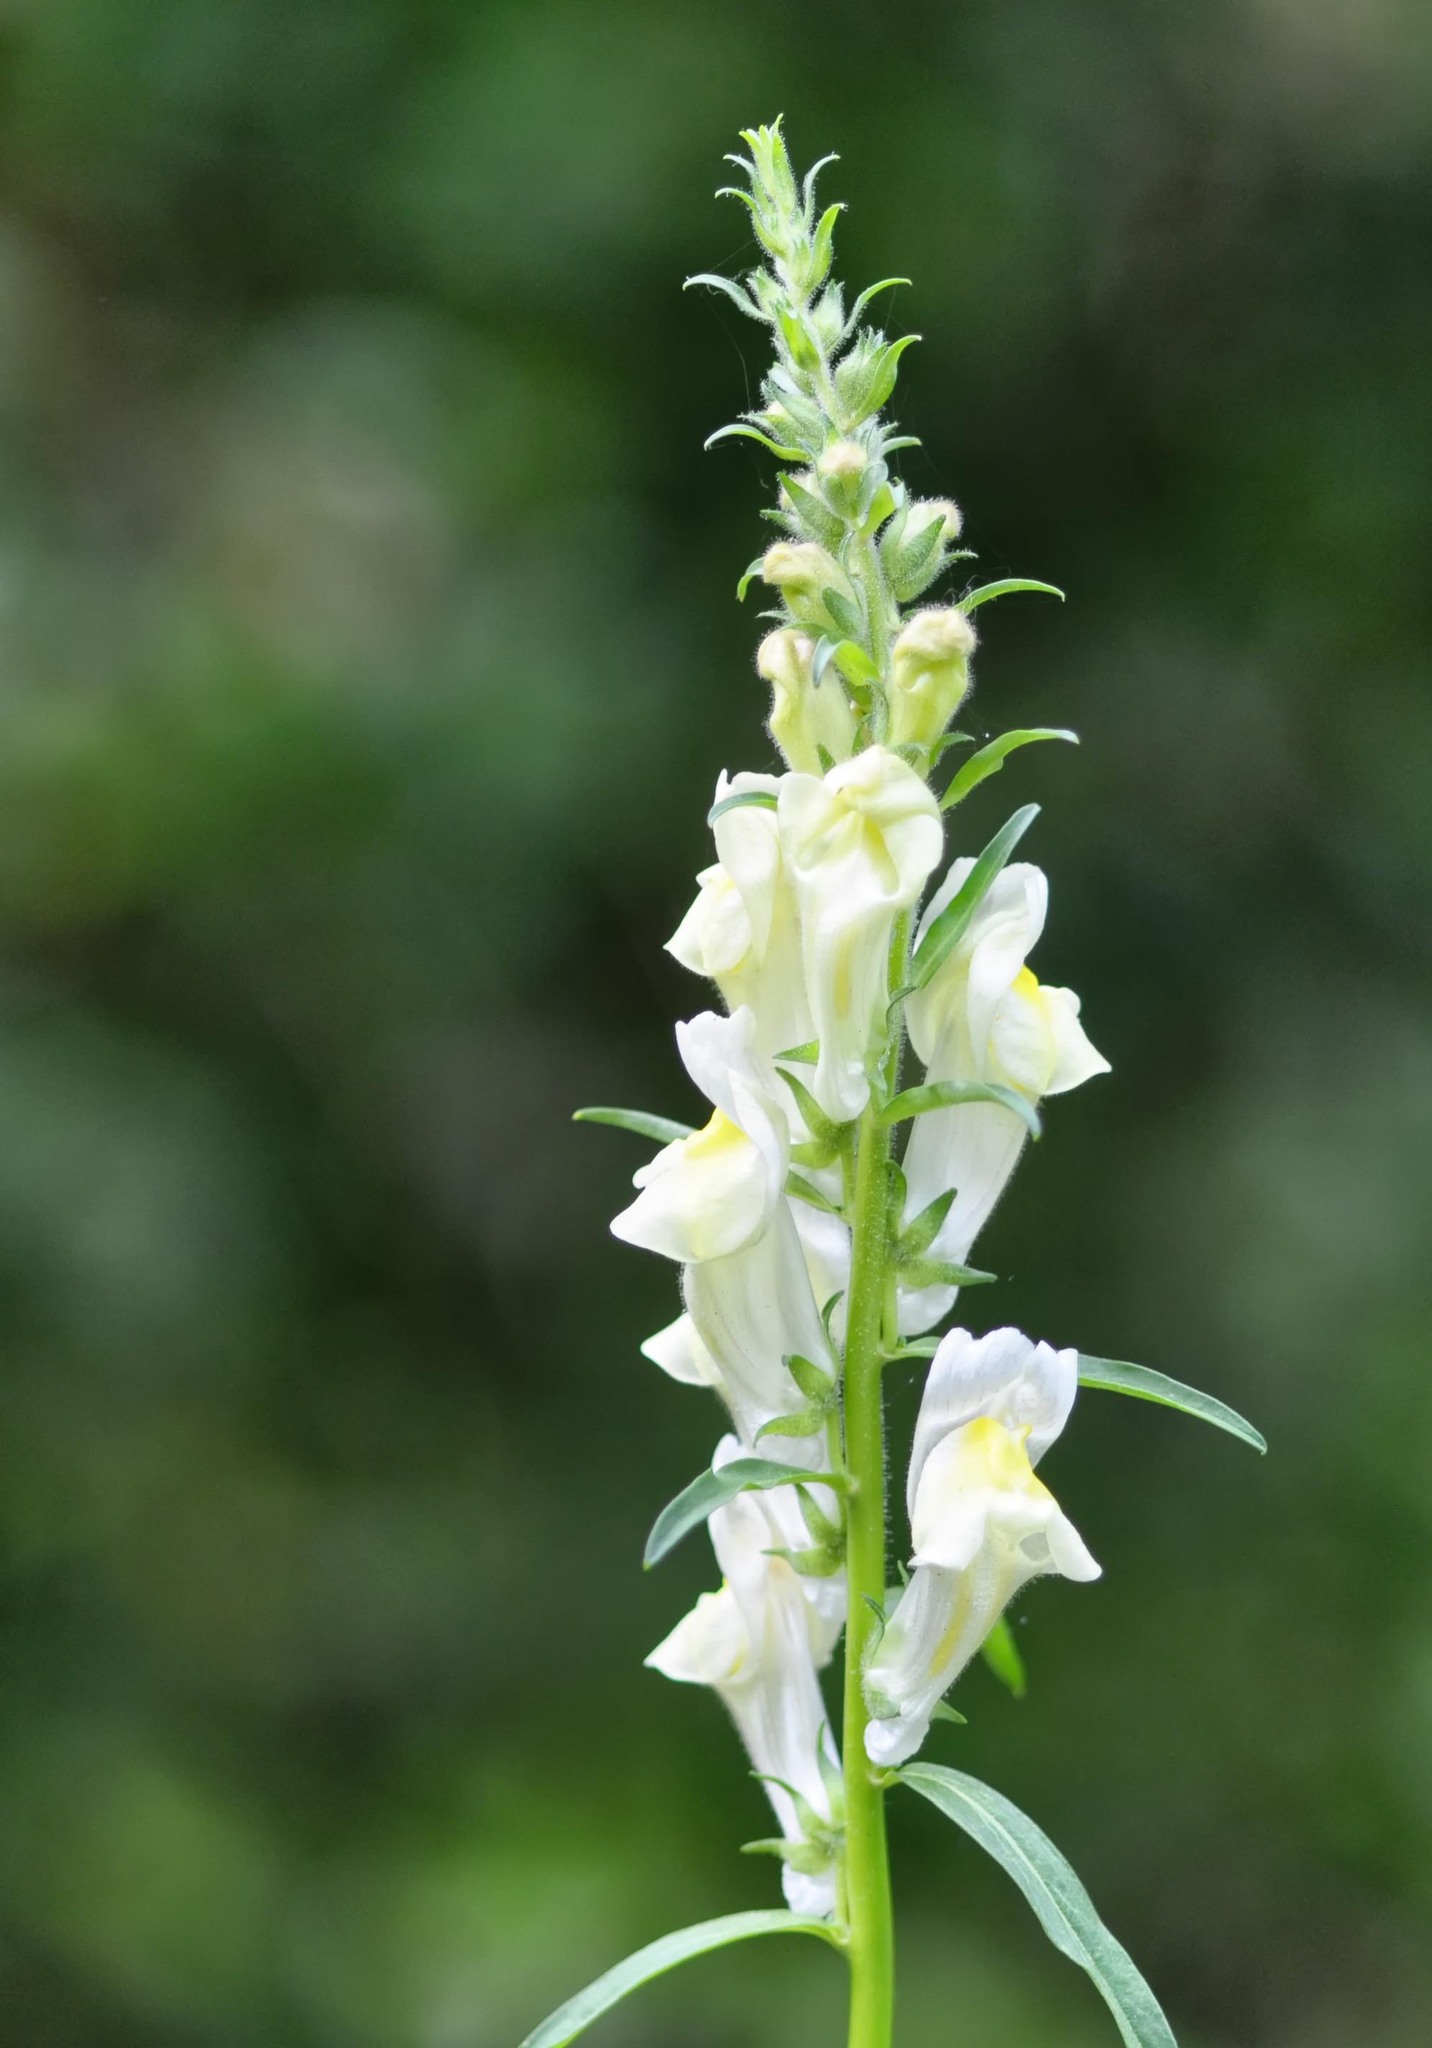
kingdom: Plantae
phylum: Tracheophyta
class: Magnoliopsida
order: Lamiales
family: Plantaginaceae
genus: Antirrhinum
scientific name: Antirrhinum braun-blanquetii
